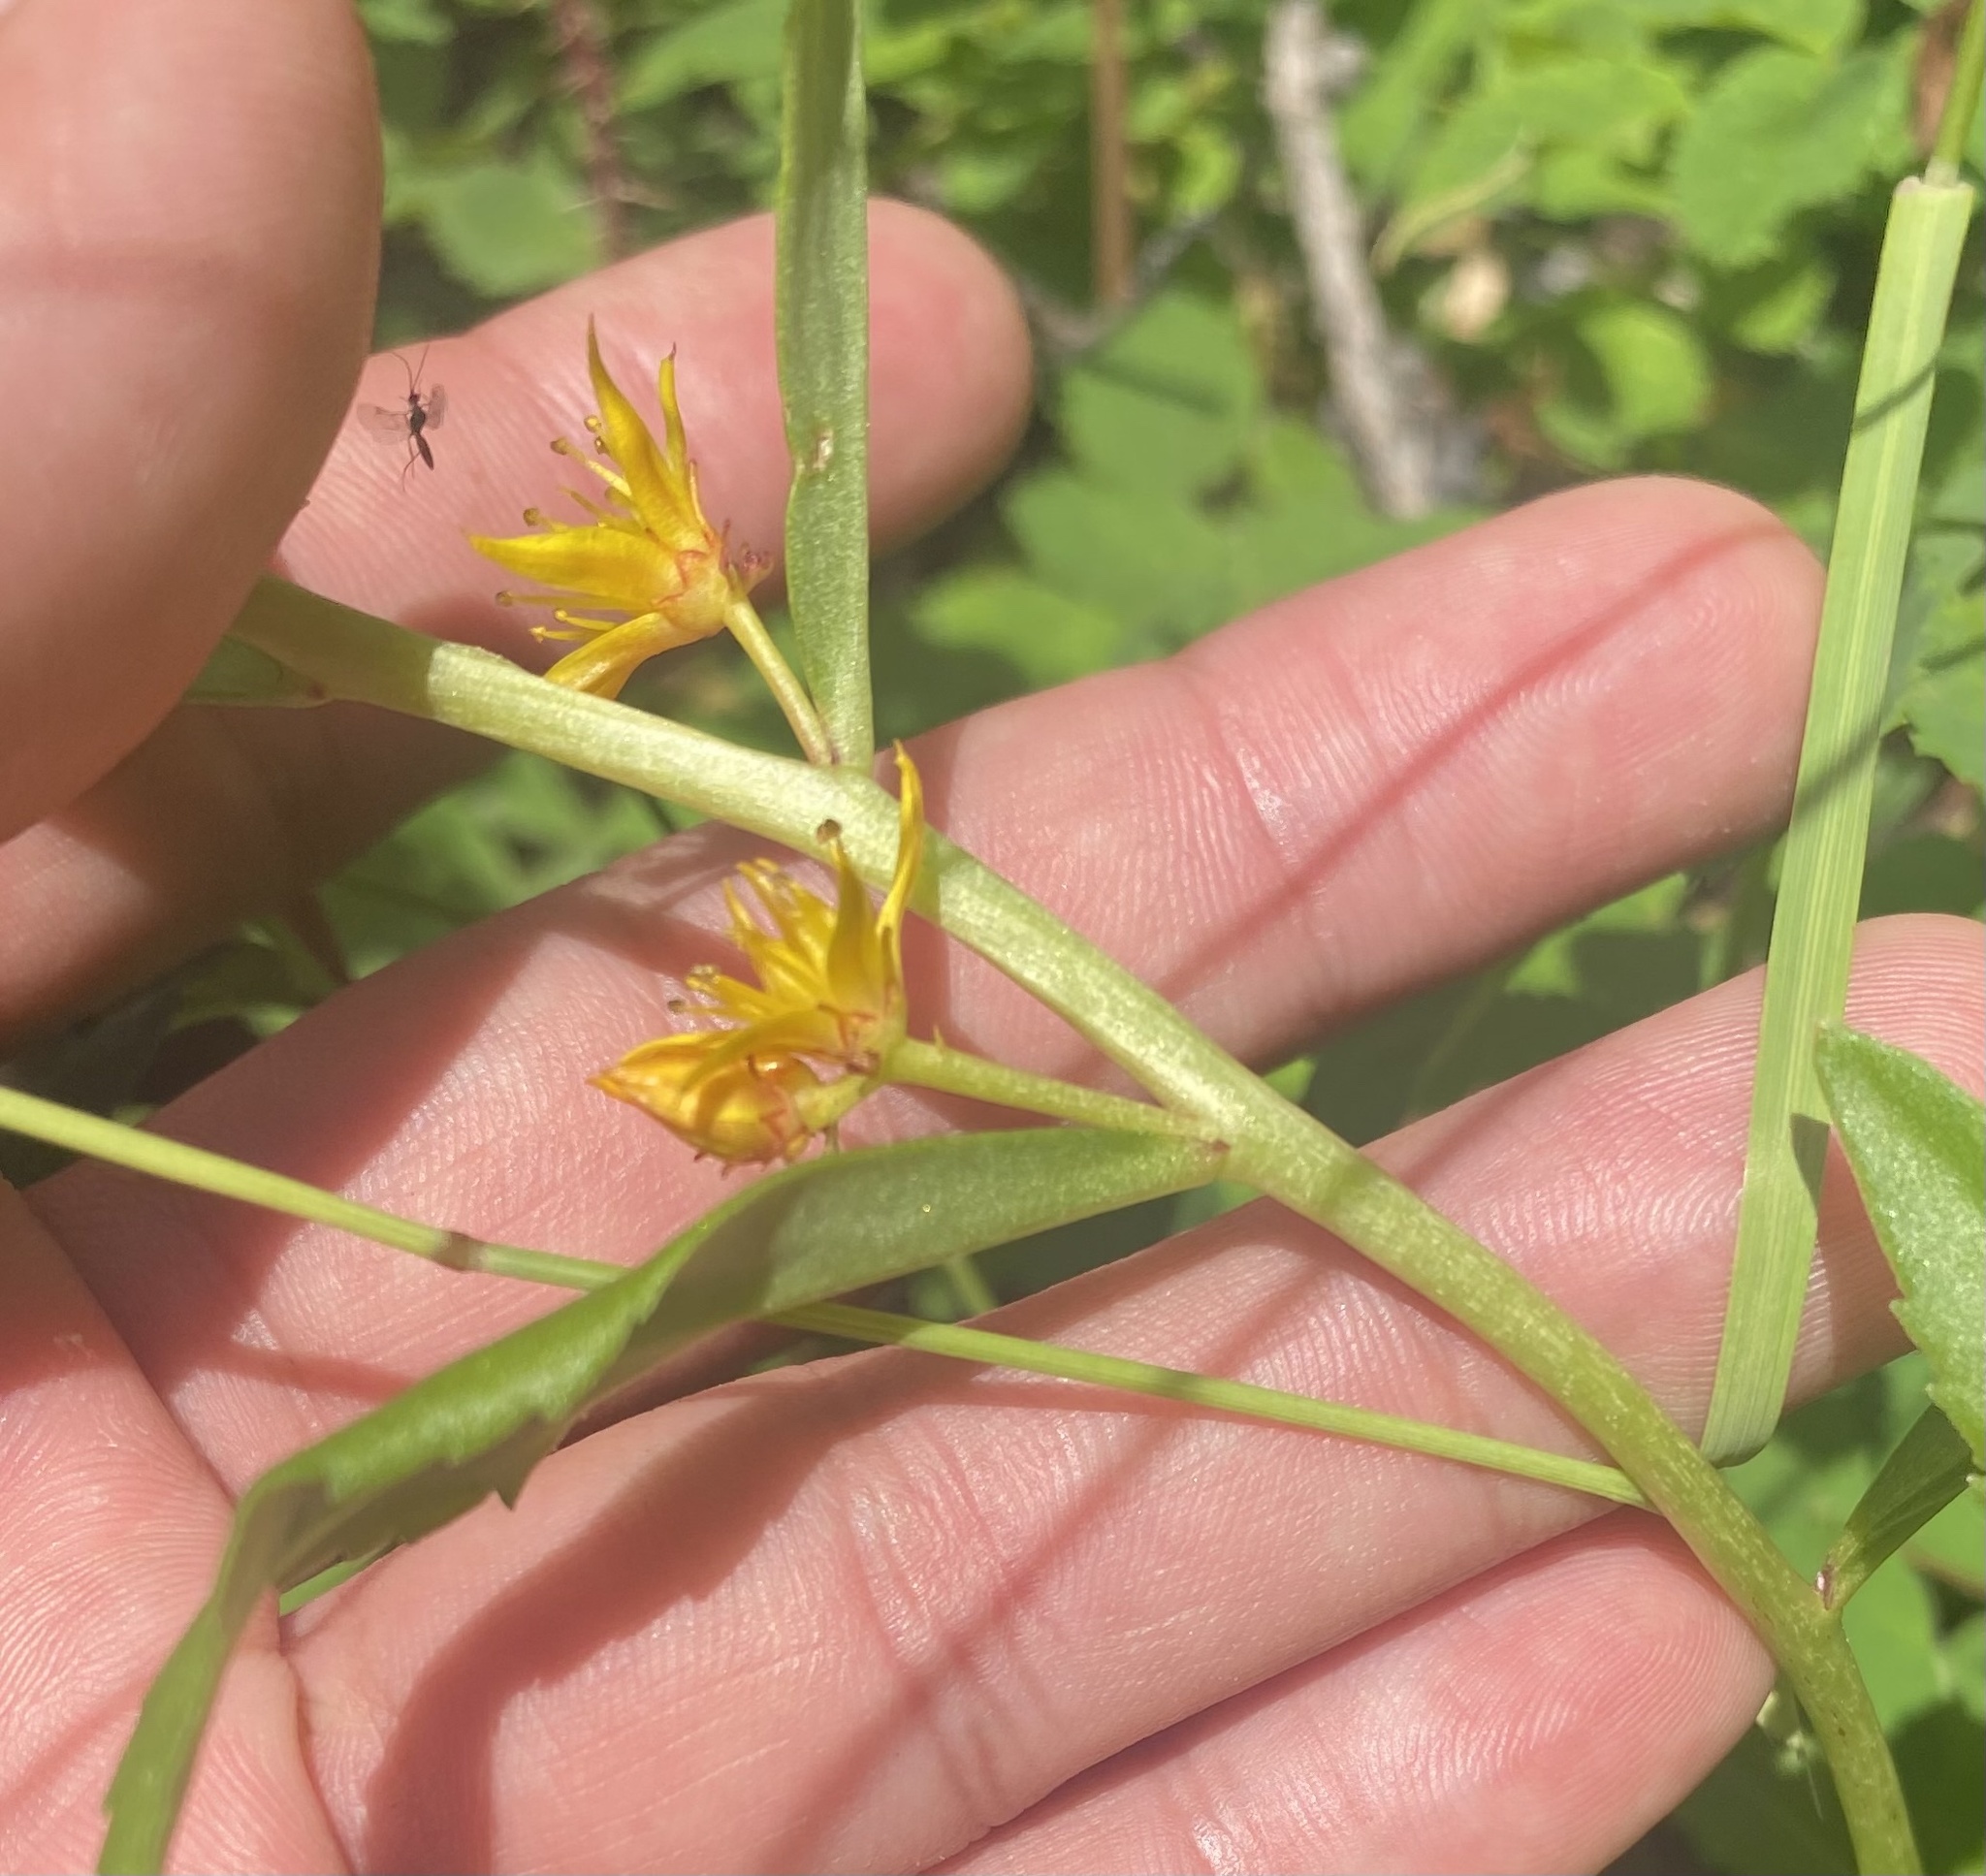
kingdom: Plantae
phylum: Tracheophyta
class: Magnoliopsida
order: Saxifragales
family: Crassulaceae
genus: Phedimus
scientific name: Phedimus aizoon
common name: Orpin aizoon
